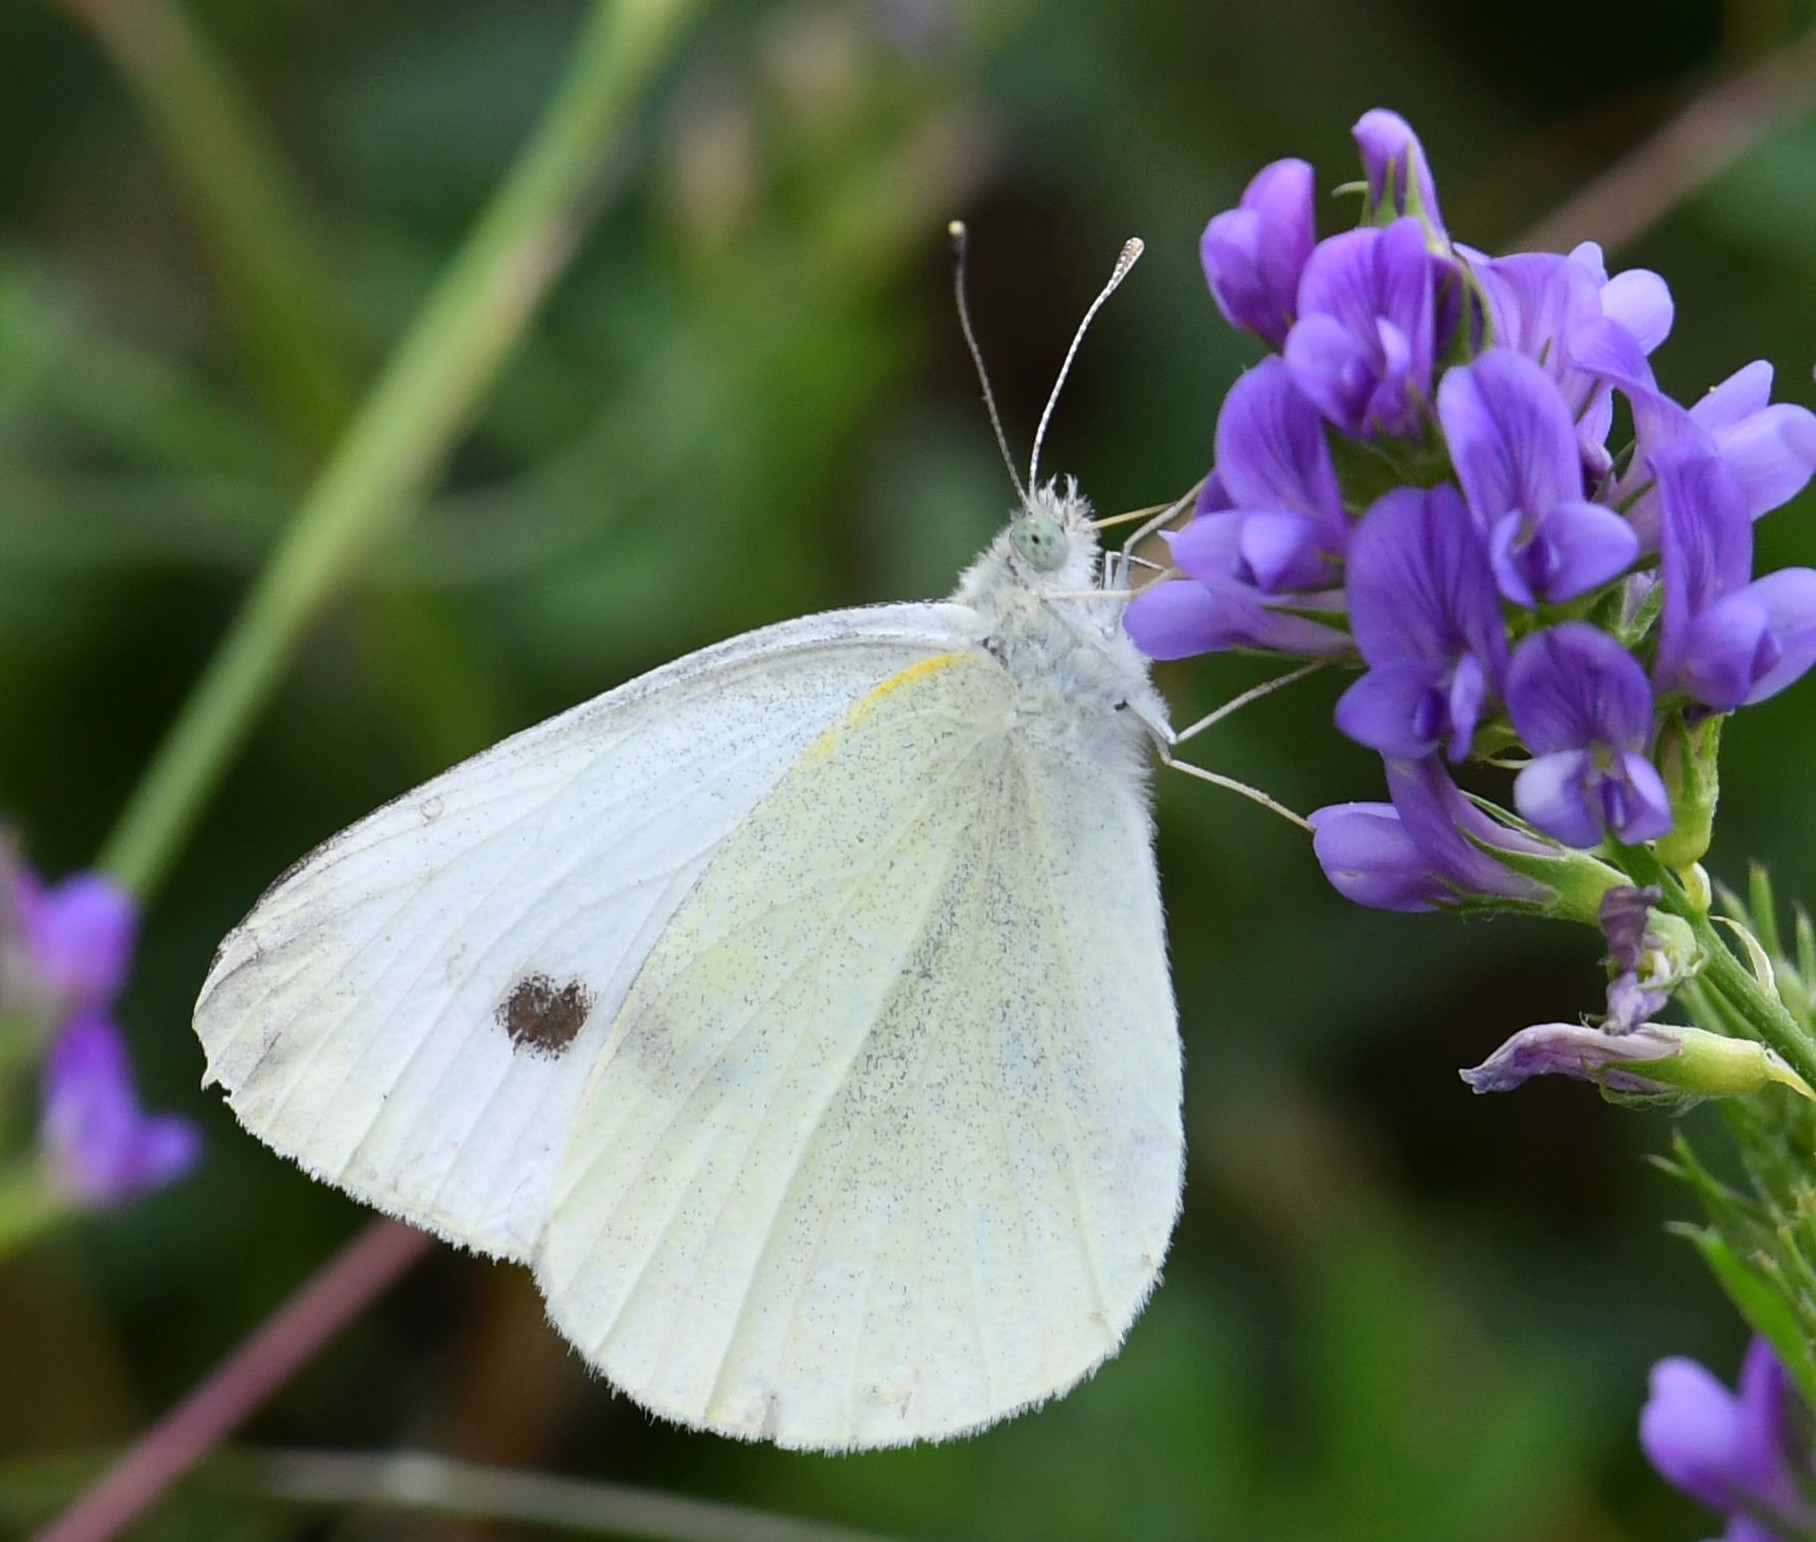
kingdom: Animalia
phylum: Arthropoda
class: Insecta
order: Lepidoptera
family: Pieridae
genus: Pieris
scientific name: Pieris rapae
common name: Small white
